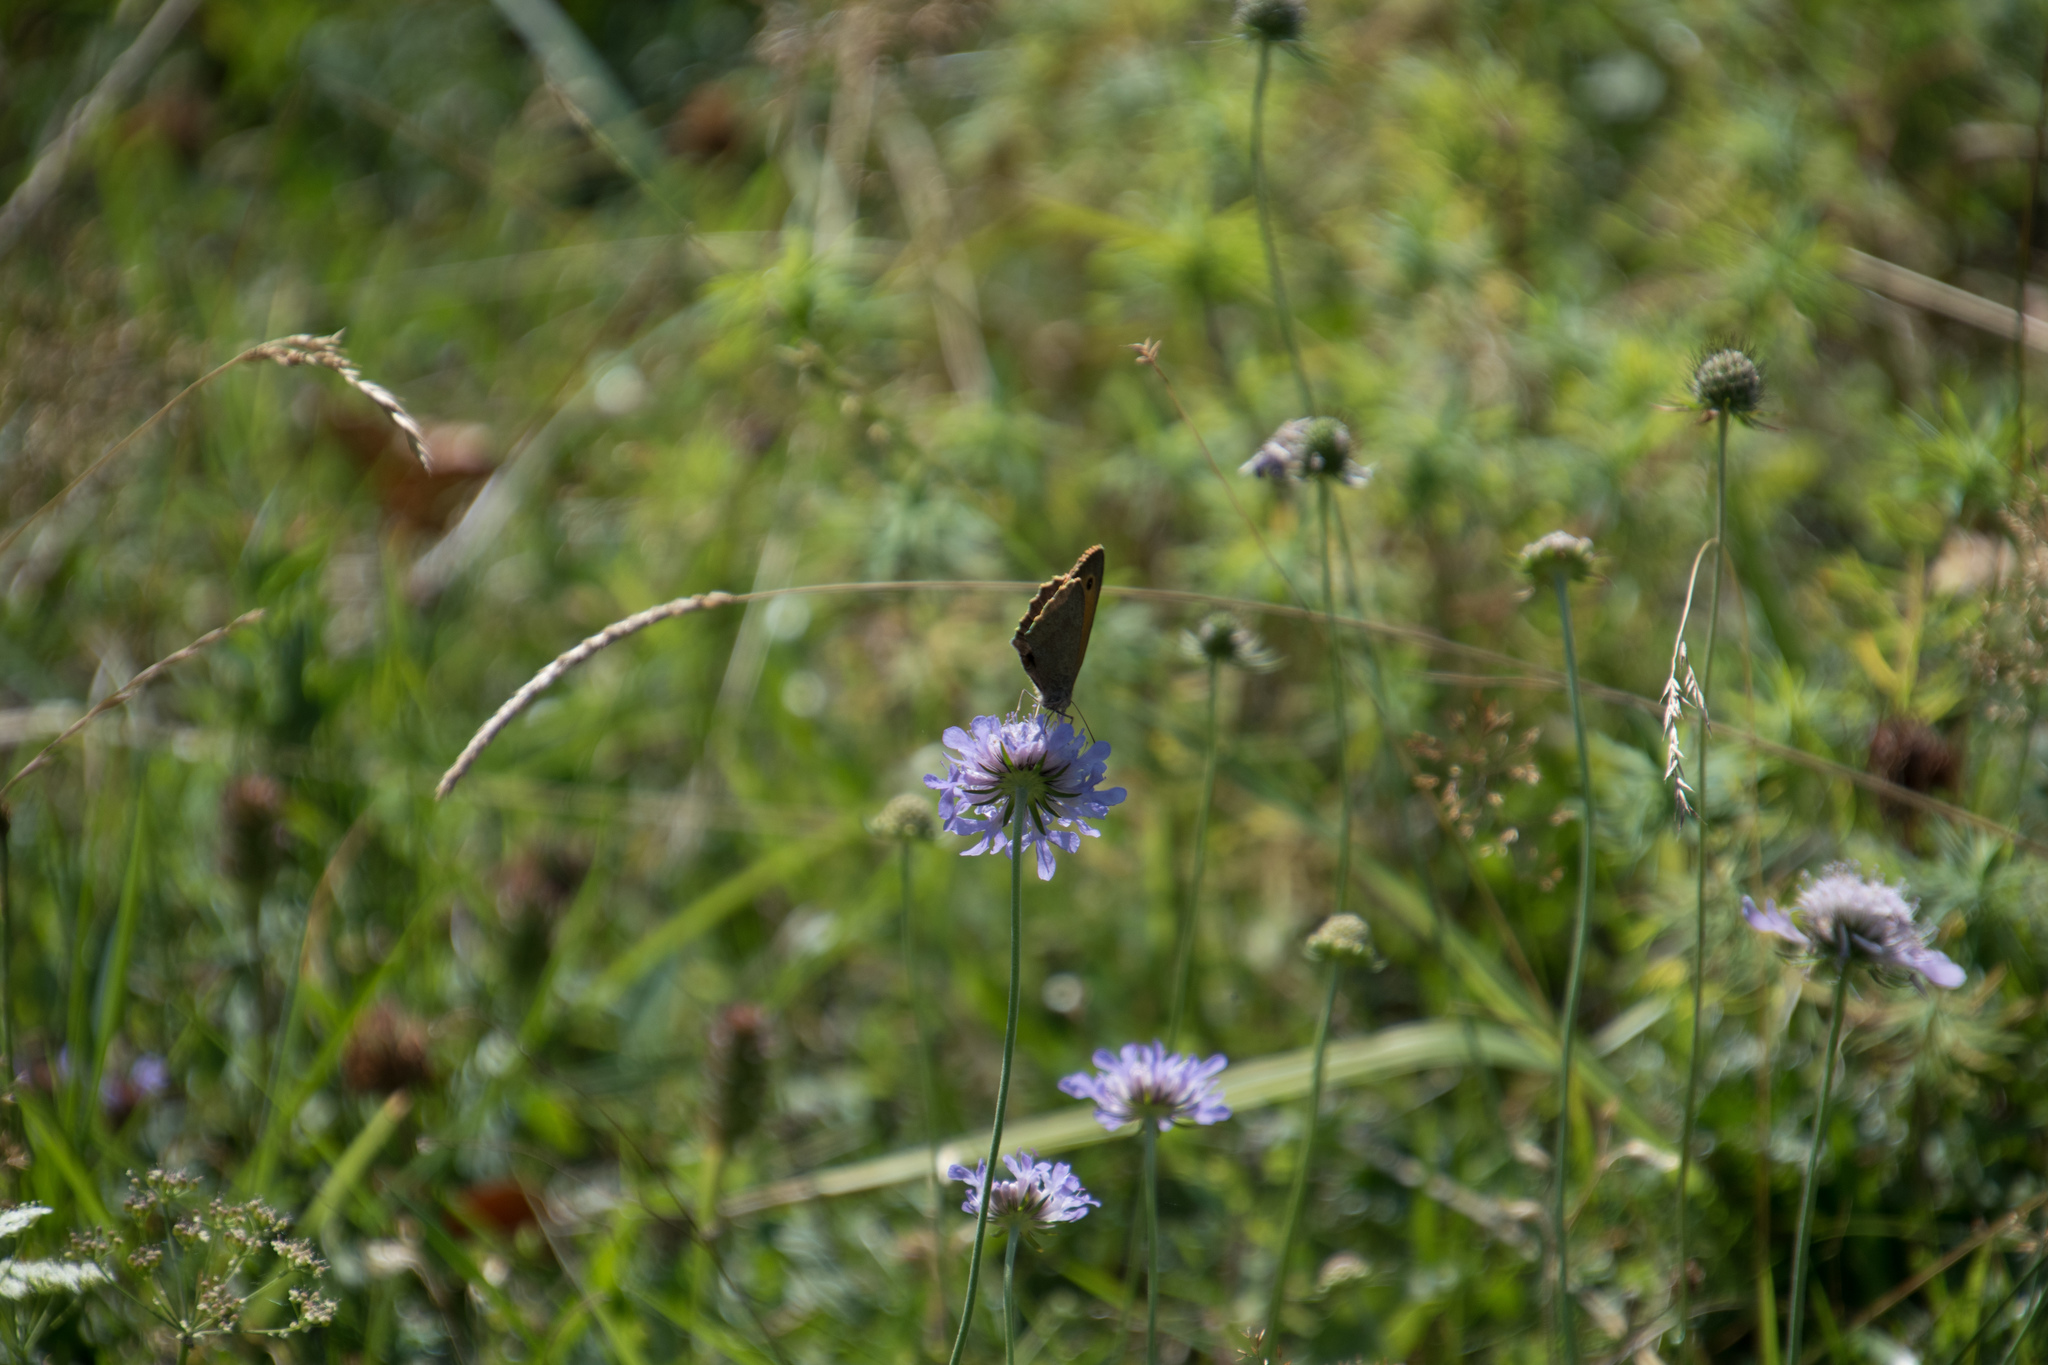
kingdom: Animalia
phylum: Arthropoda
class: Insecta
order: Lepidoptera
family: Nymphalidae
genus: Maniola
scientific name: Maniola jurtina
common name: Meadow brown
